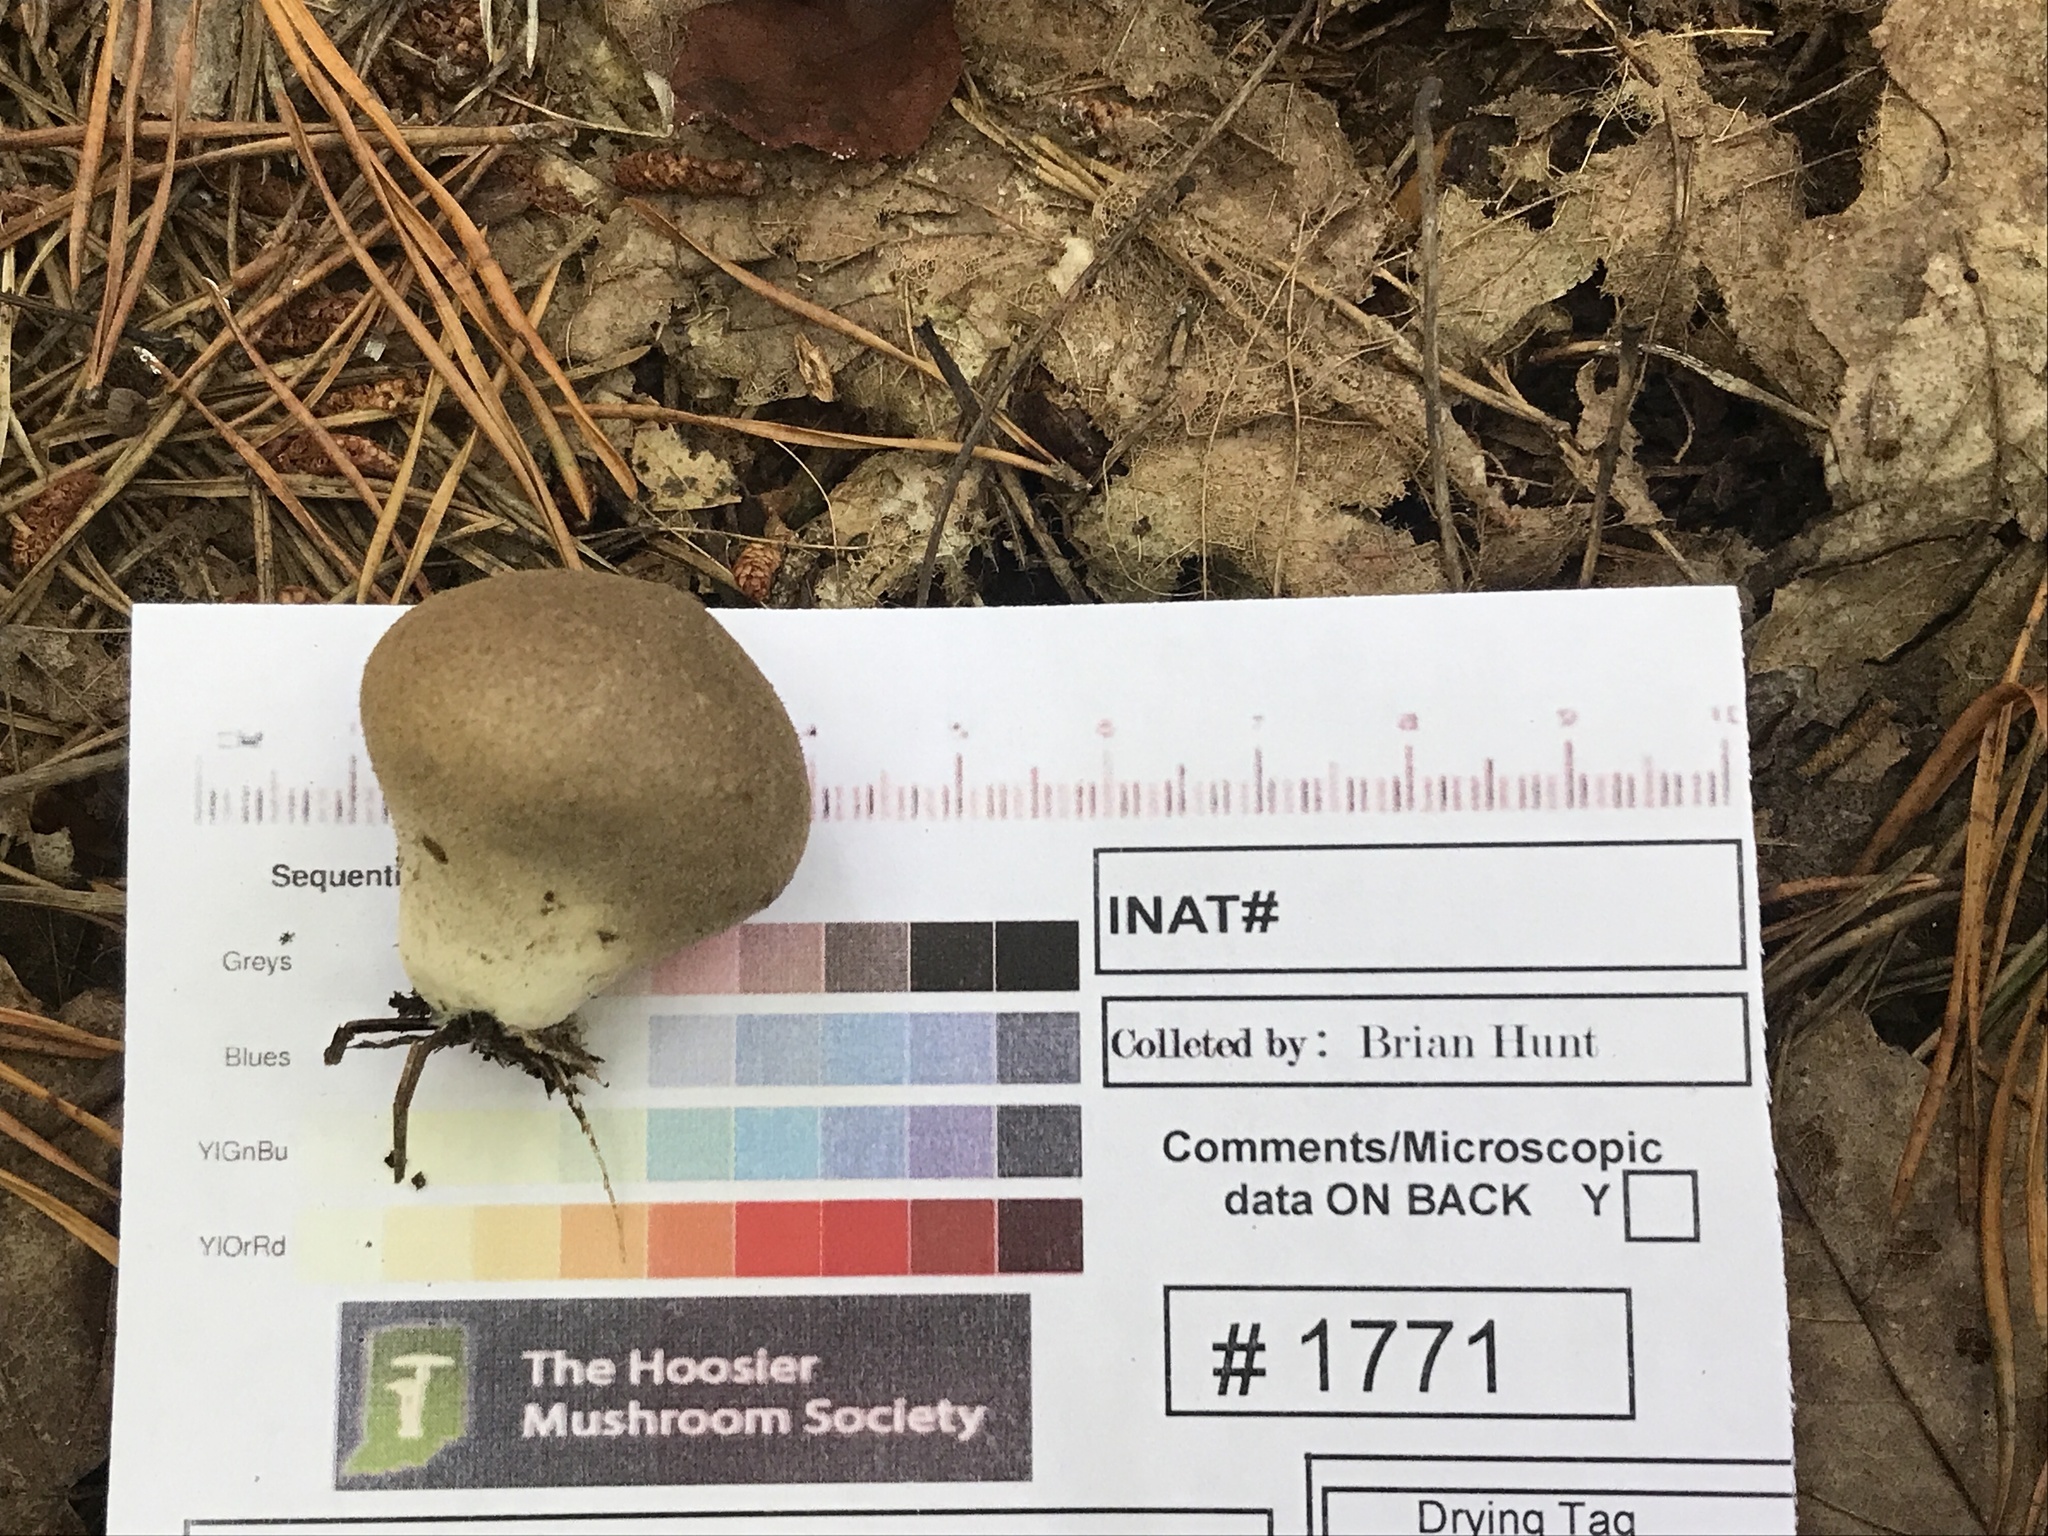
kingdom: Fungi
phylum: Basidiomycota
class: Agaricomycetes
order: Agaricales
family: Lycoperdaceae
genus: Lycoperdon
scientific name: Lycoperdon umbrinum
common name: Umber-brown puffball
